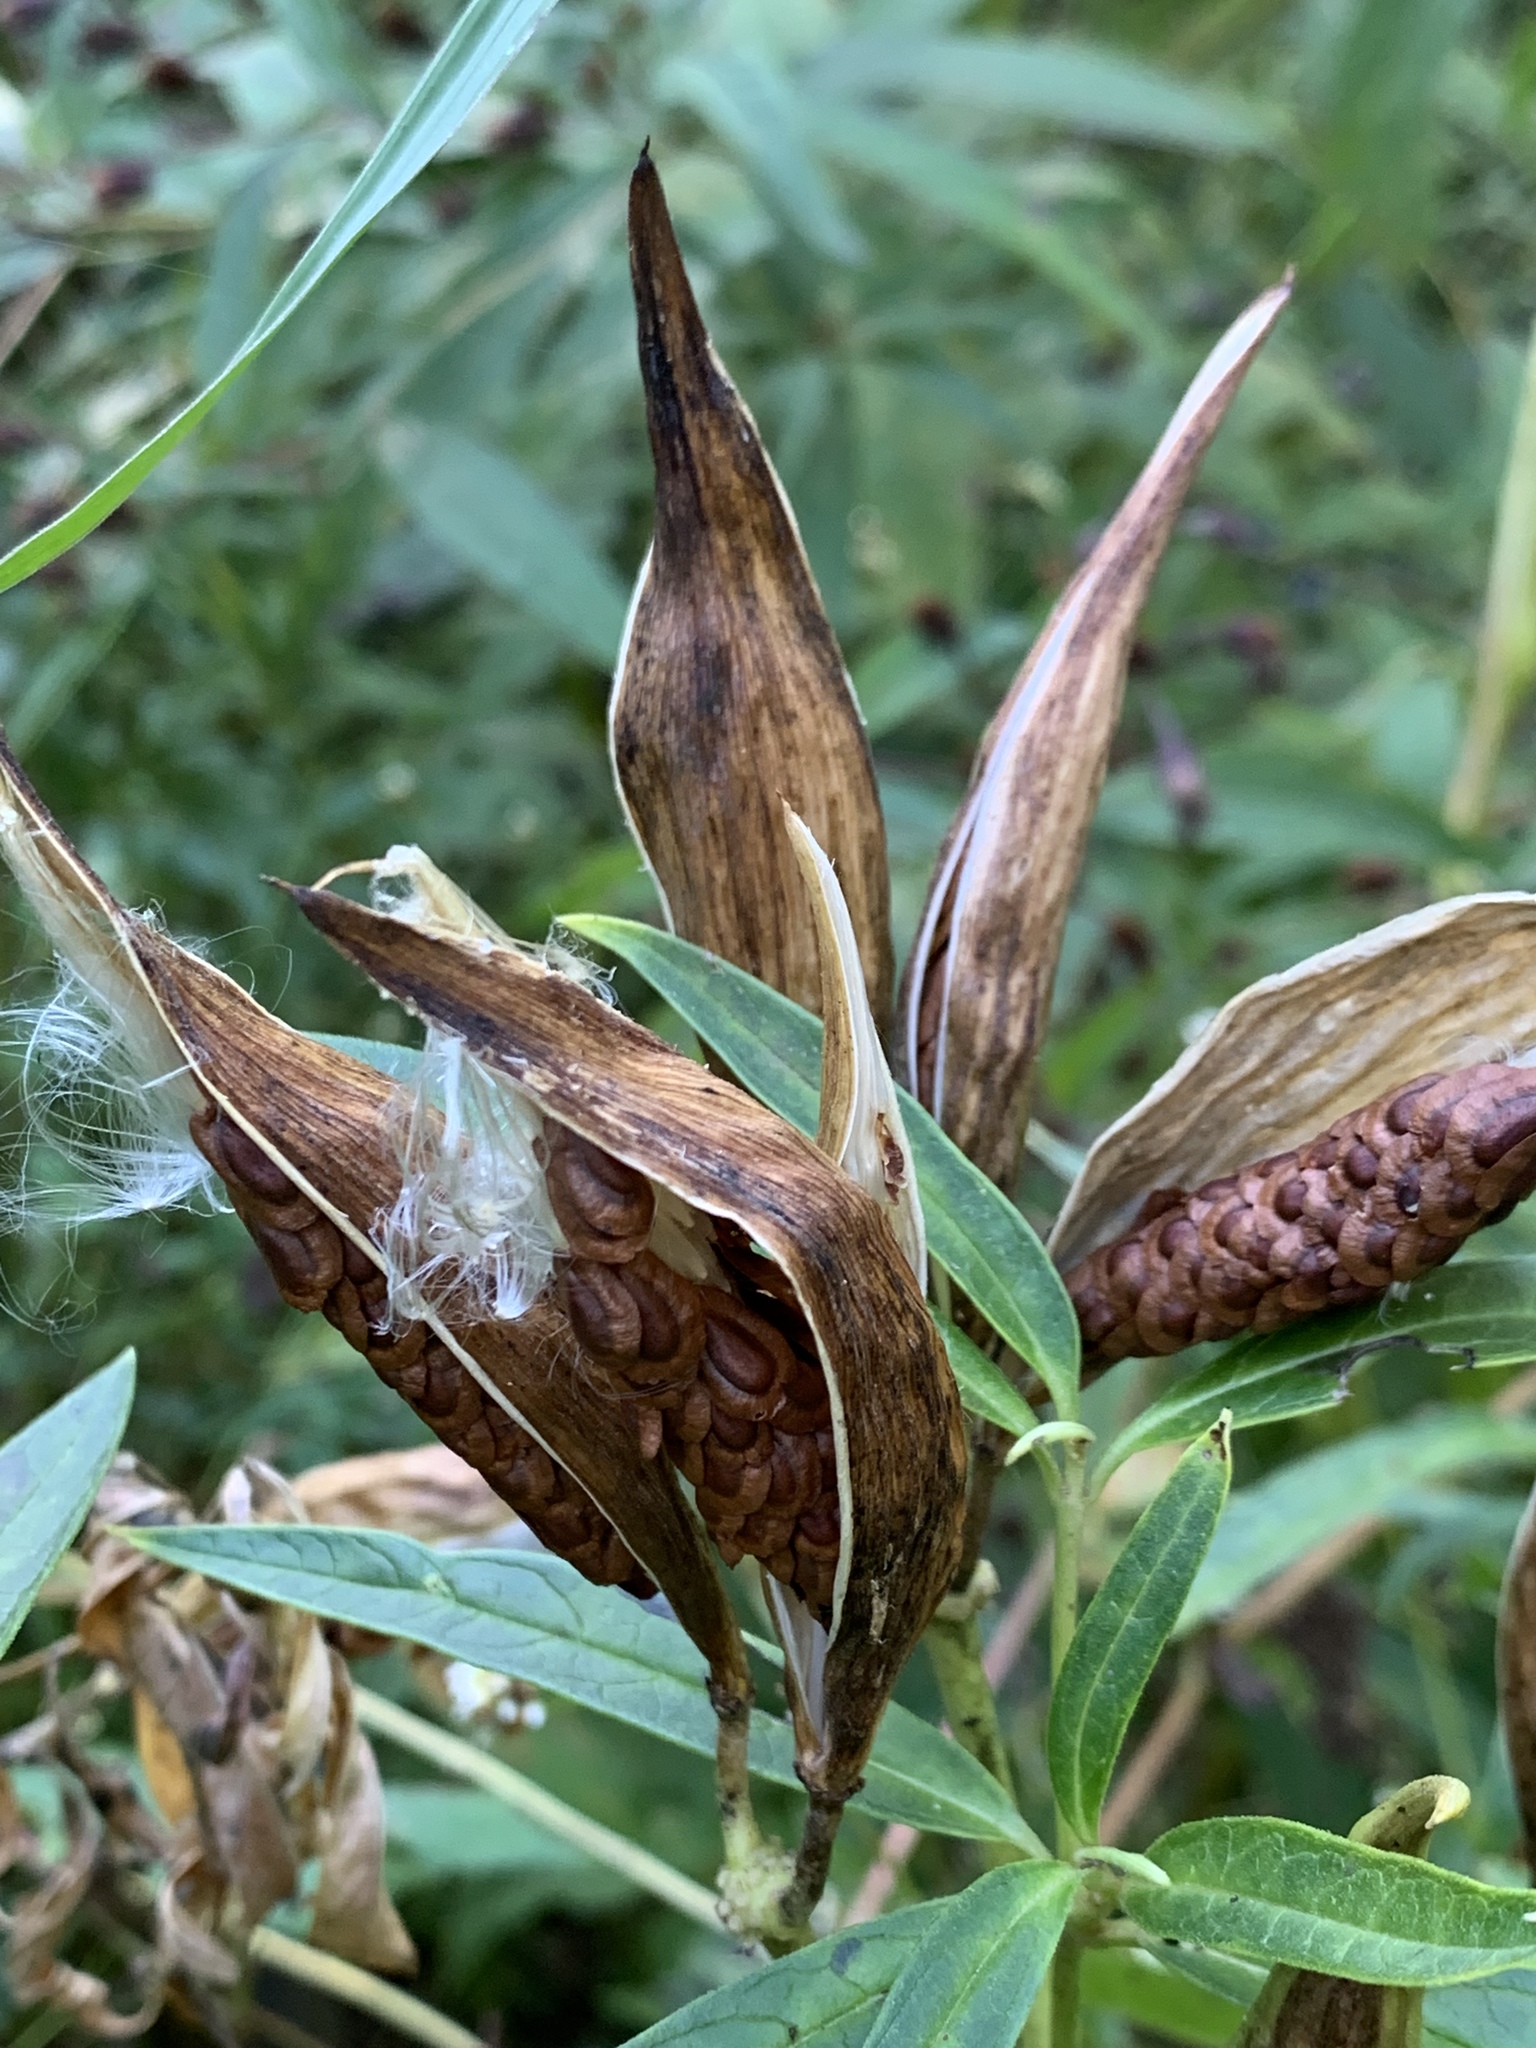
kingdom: Plantae
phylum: Tracheophyta
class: Magnoliopsida
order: Gentianales
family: Apocynaceae
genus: Asclepias
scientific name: Asclepias incarnata
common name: Swamp milkweed
